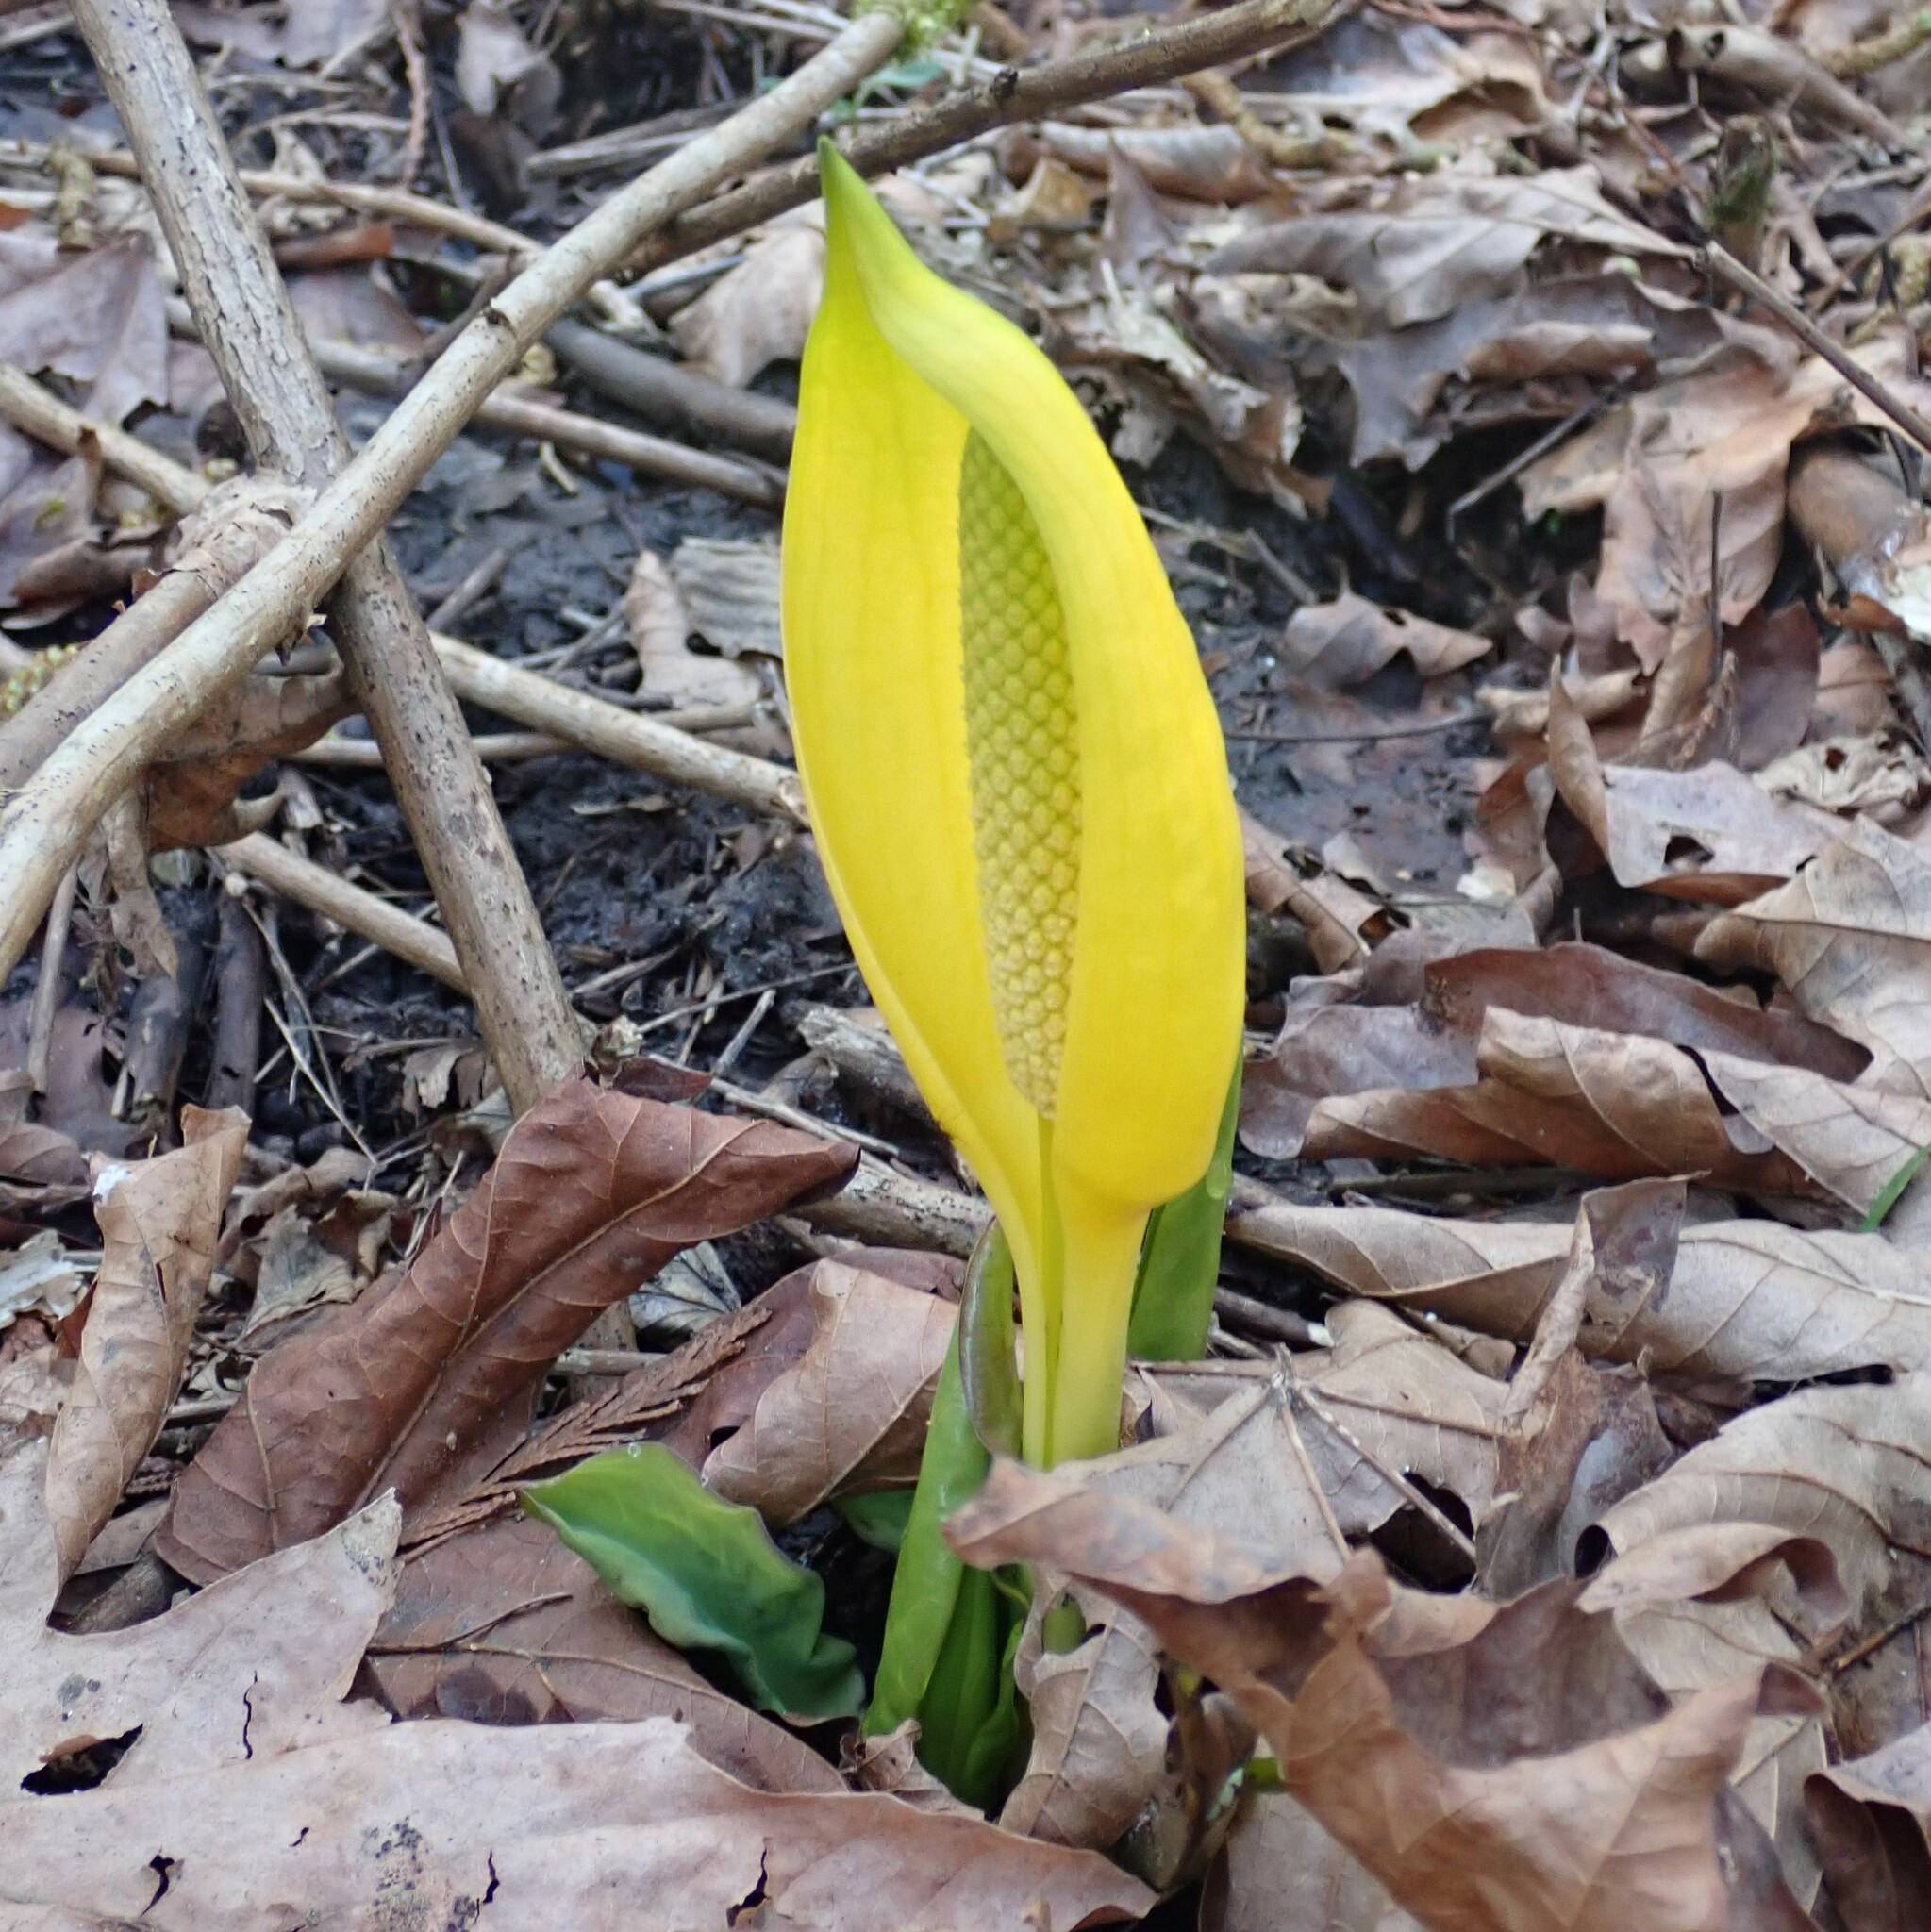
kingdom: Plantae
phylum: Tracheophyta
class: Liliopsida
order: Alismatales
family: Araceae
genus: Lysichiton
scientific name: Lysichiton americanus
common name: American skunk cabbage
